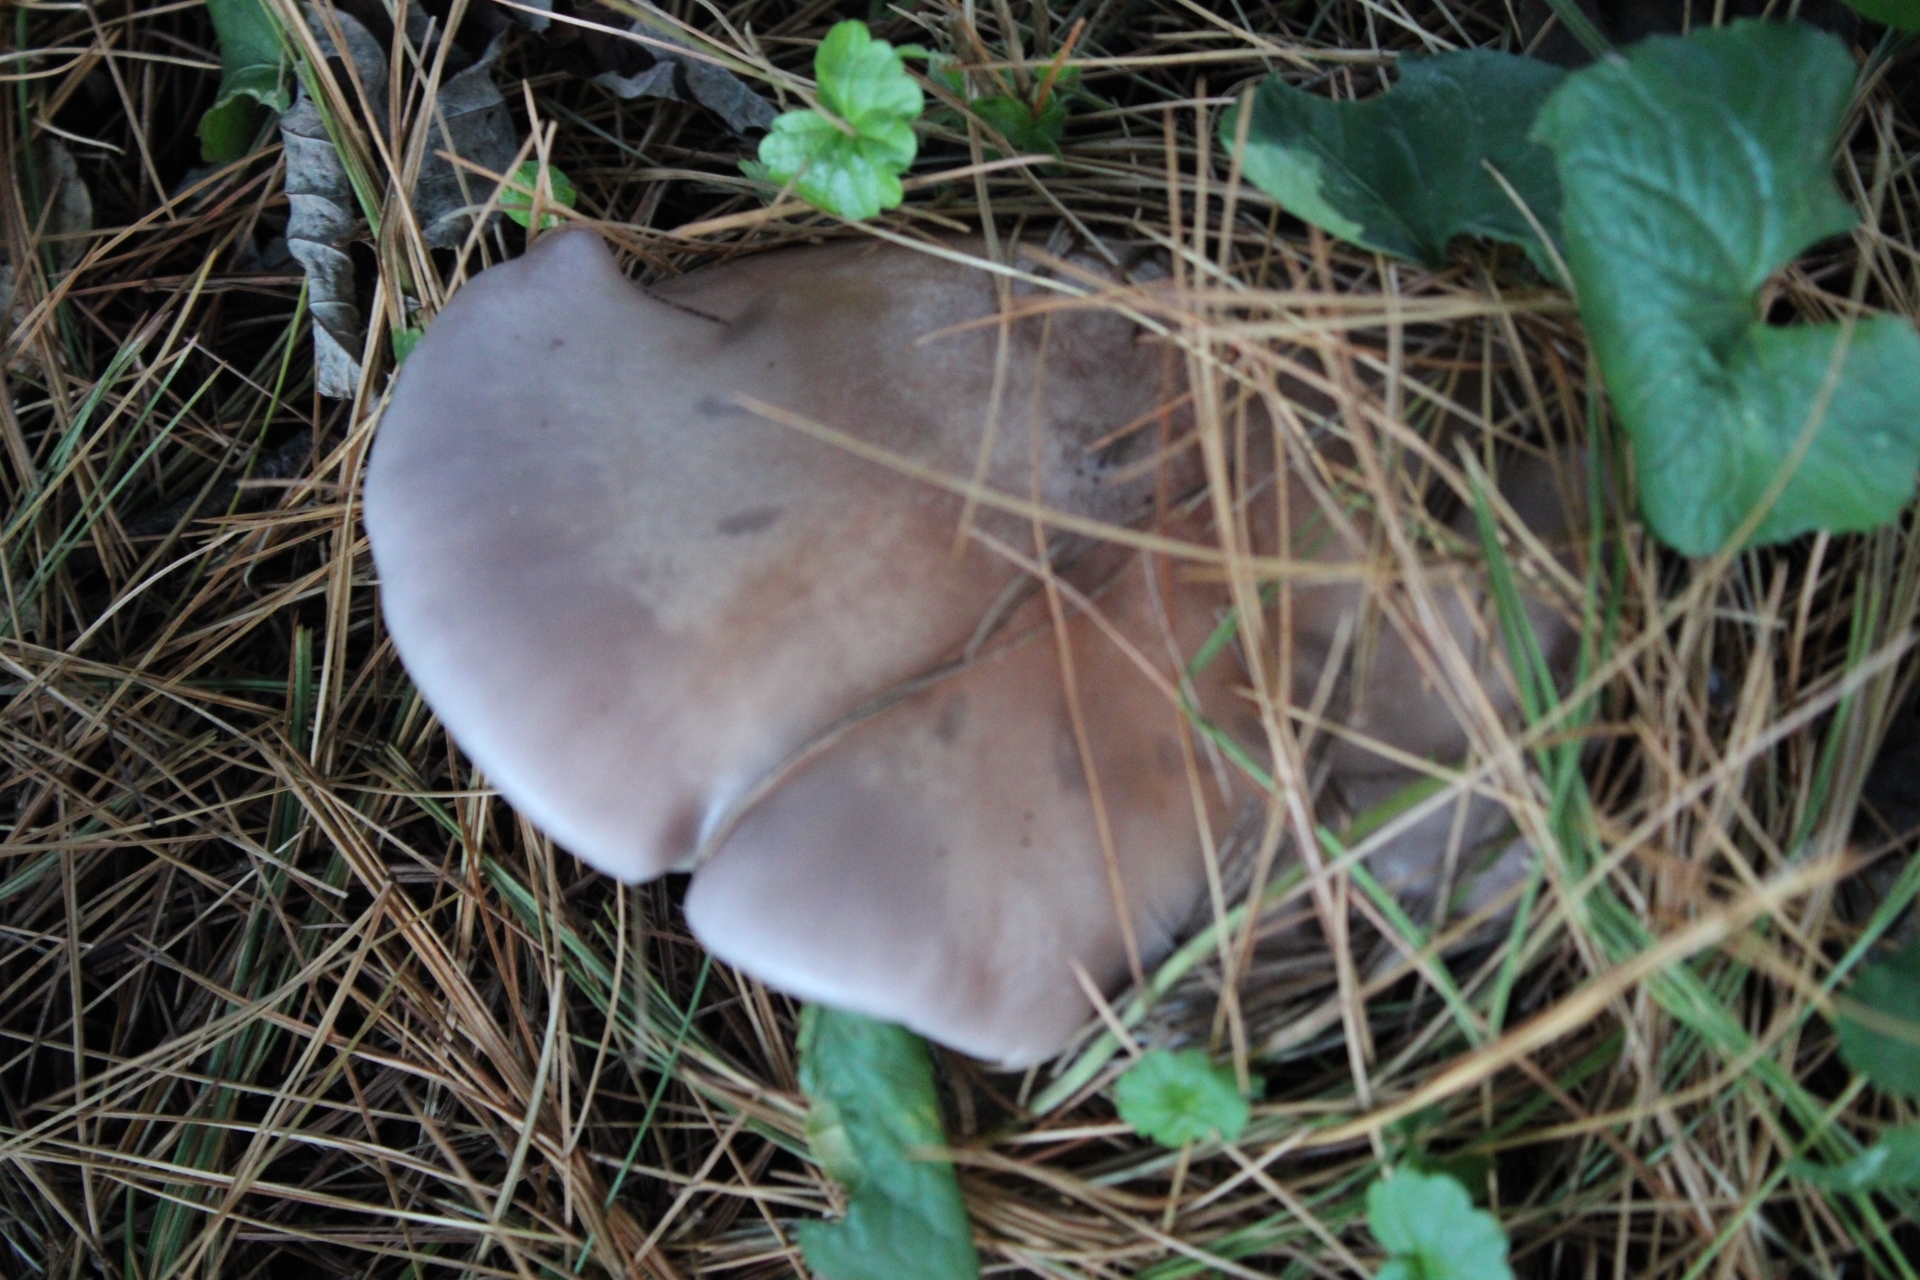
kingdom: Fungi
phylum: Basidiomycota
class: Agaricomycetes
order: Agaricales
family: Tricholomataceae
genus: Collybia
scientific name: Collybia
